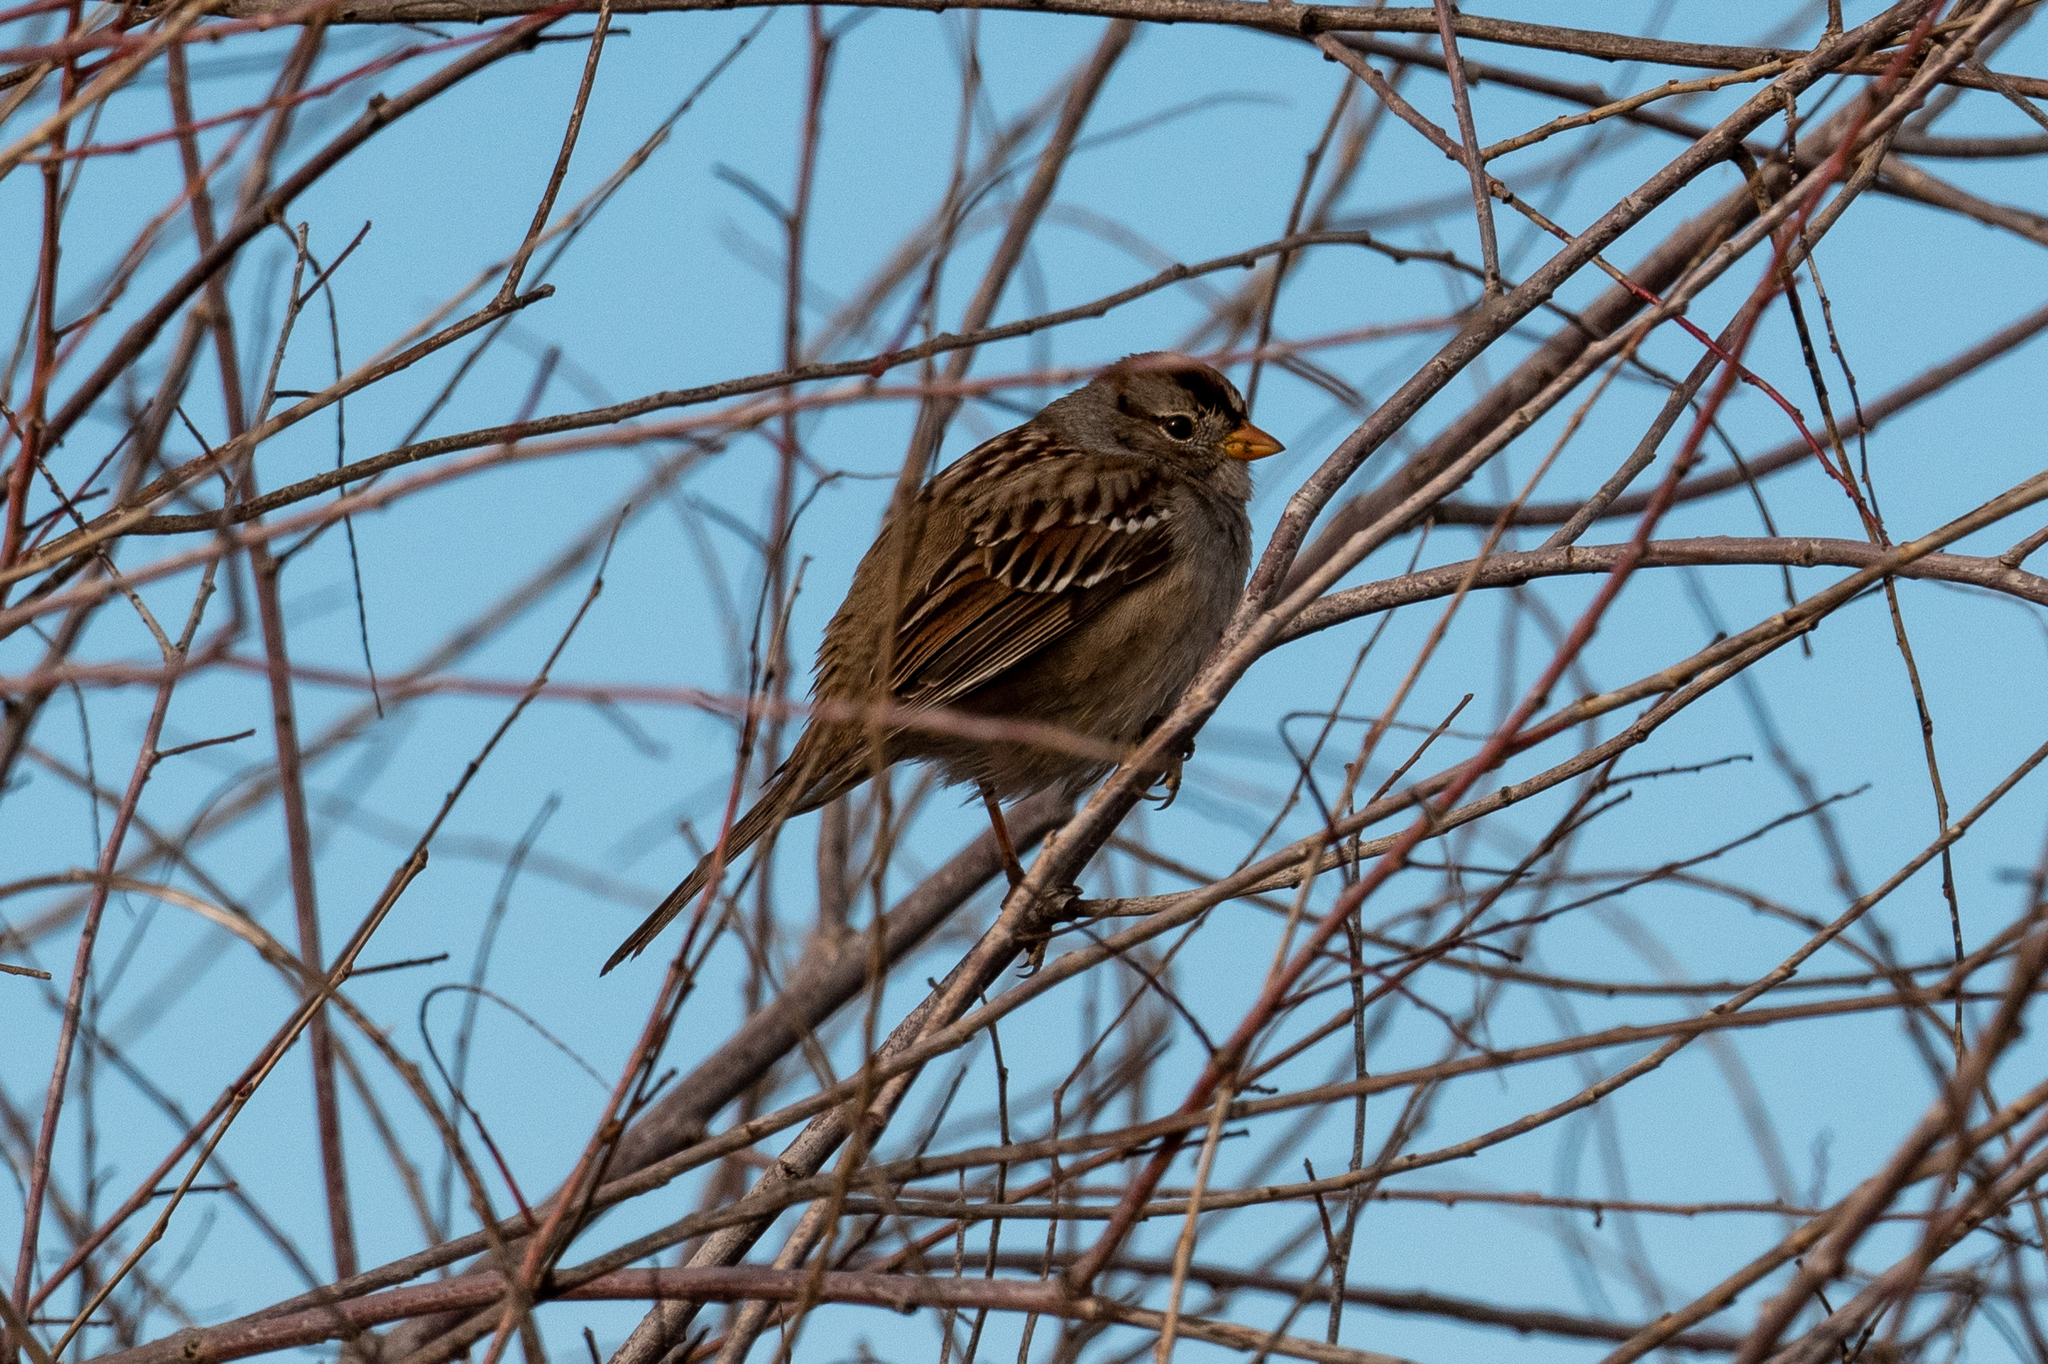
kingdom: Animalia
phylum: Chordata
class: Aves
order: Passeriformes
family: Passerellidae
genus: Zonotrichia
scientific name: Zonotrichia leucophrys
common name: White-crowned sparrow
